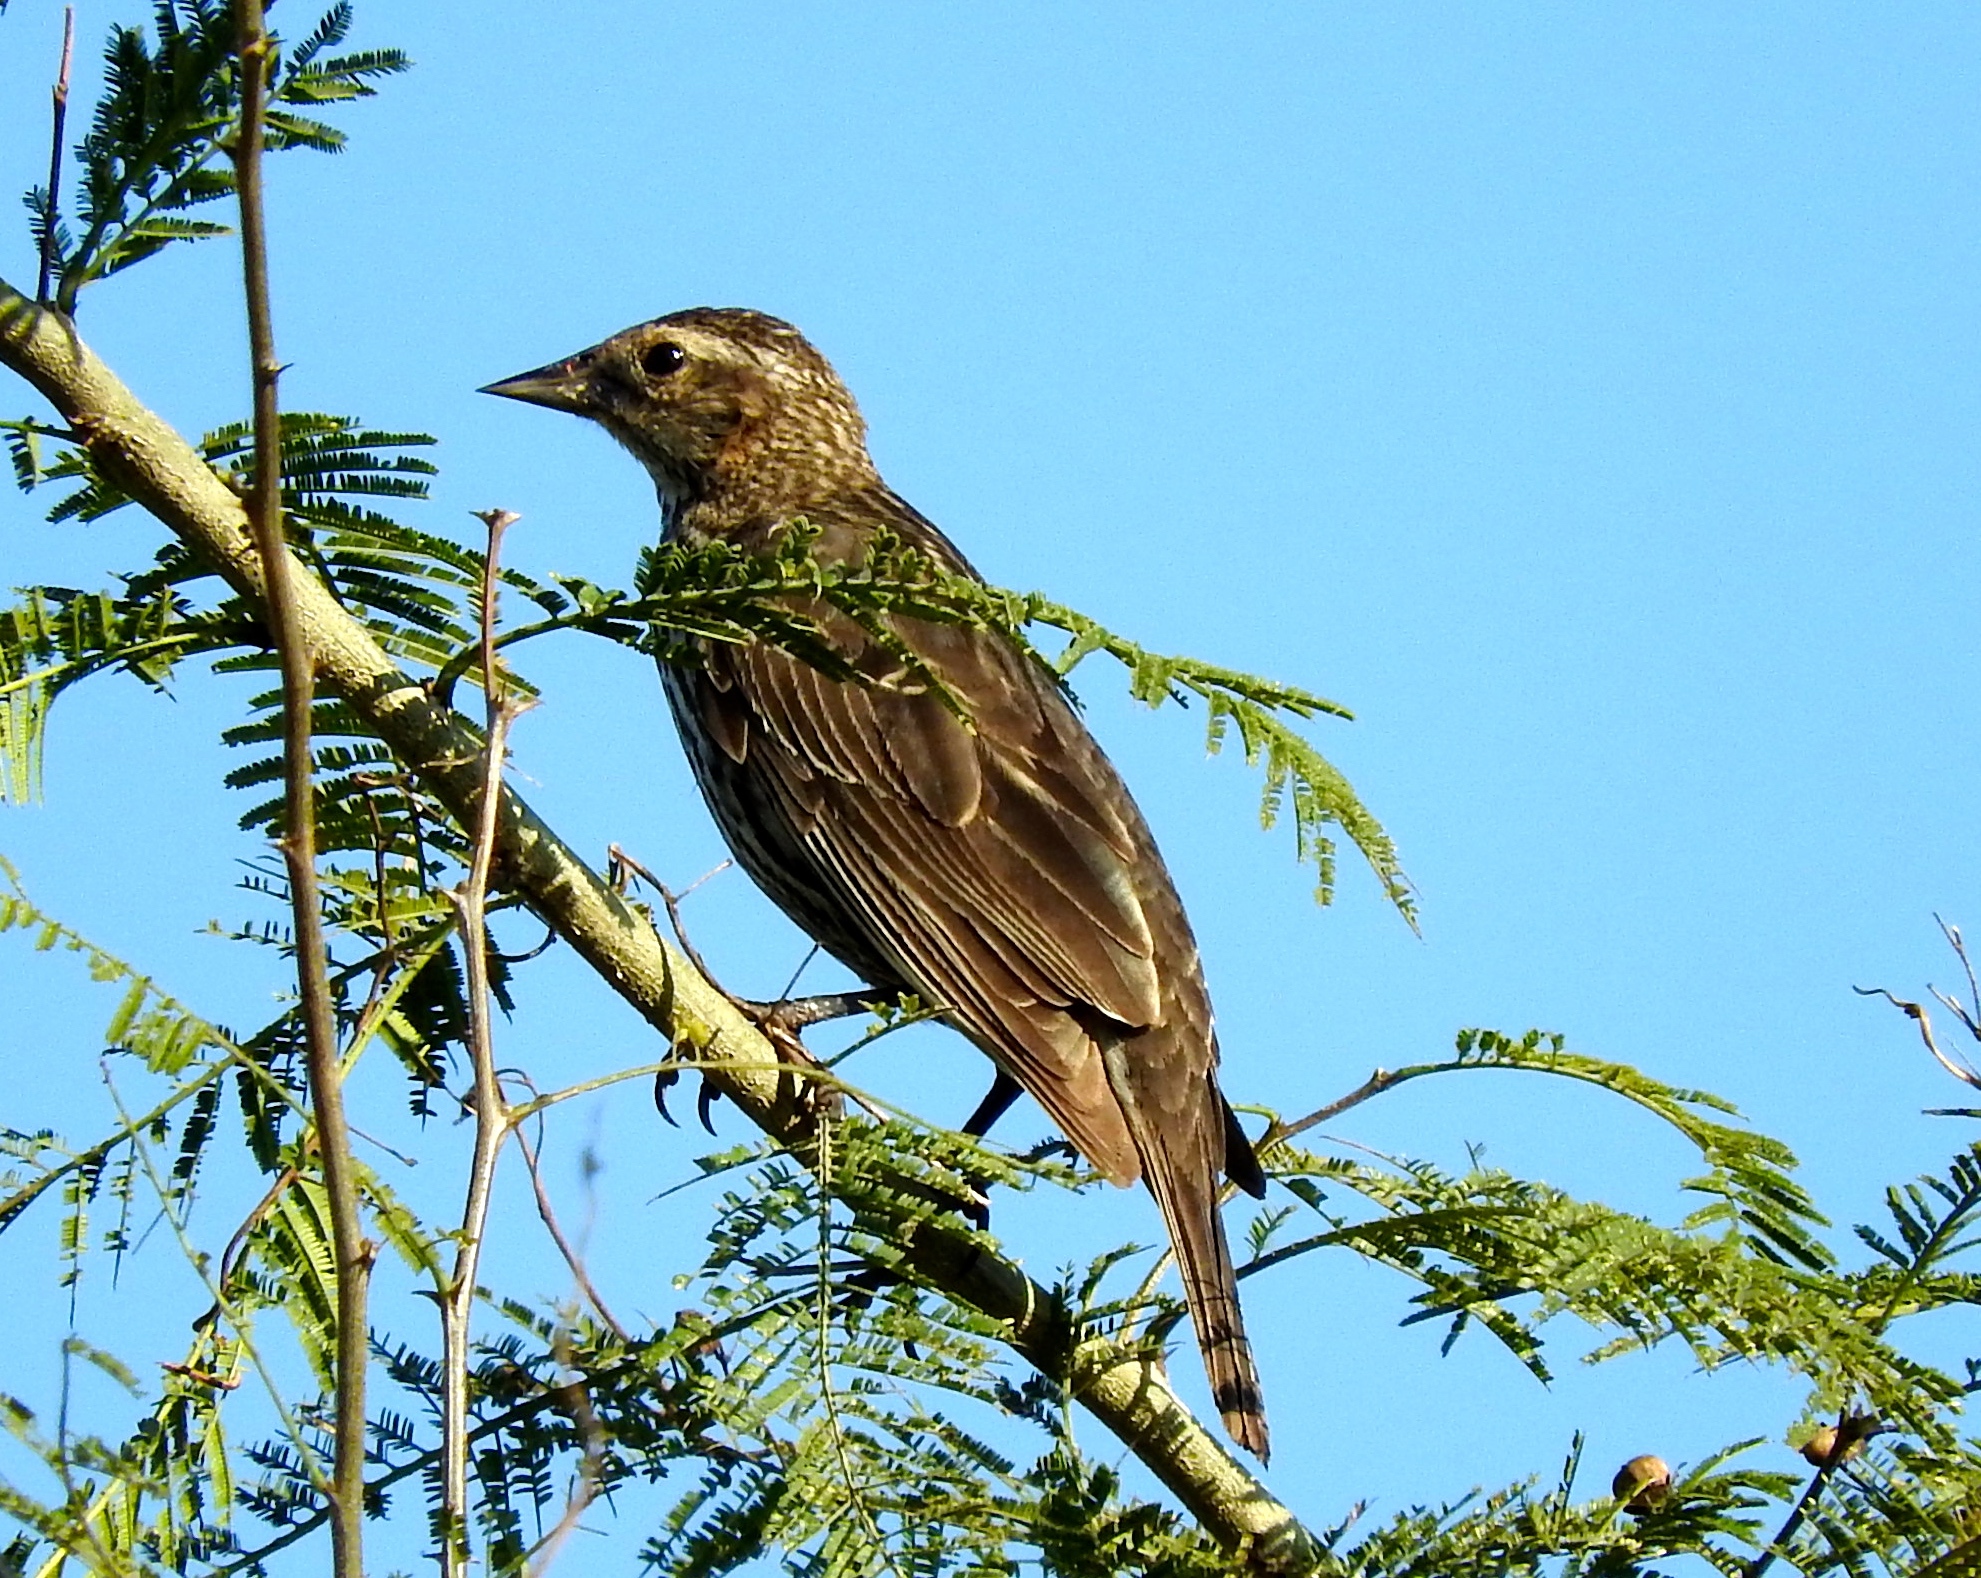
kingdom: Animalia
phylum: Chordata
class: Aves
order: Passeriformes
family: Icteridae
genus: Agelaius
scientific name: Agelaius phoeniceus
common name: Red-winged blackbird
